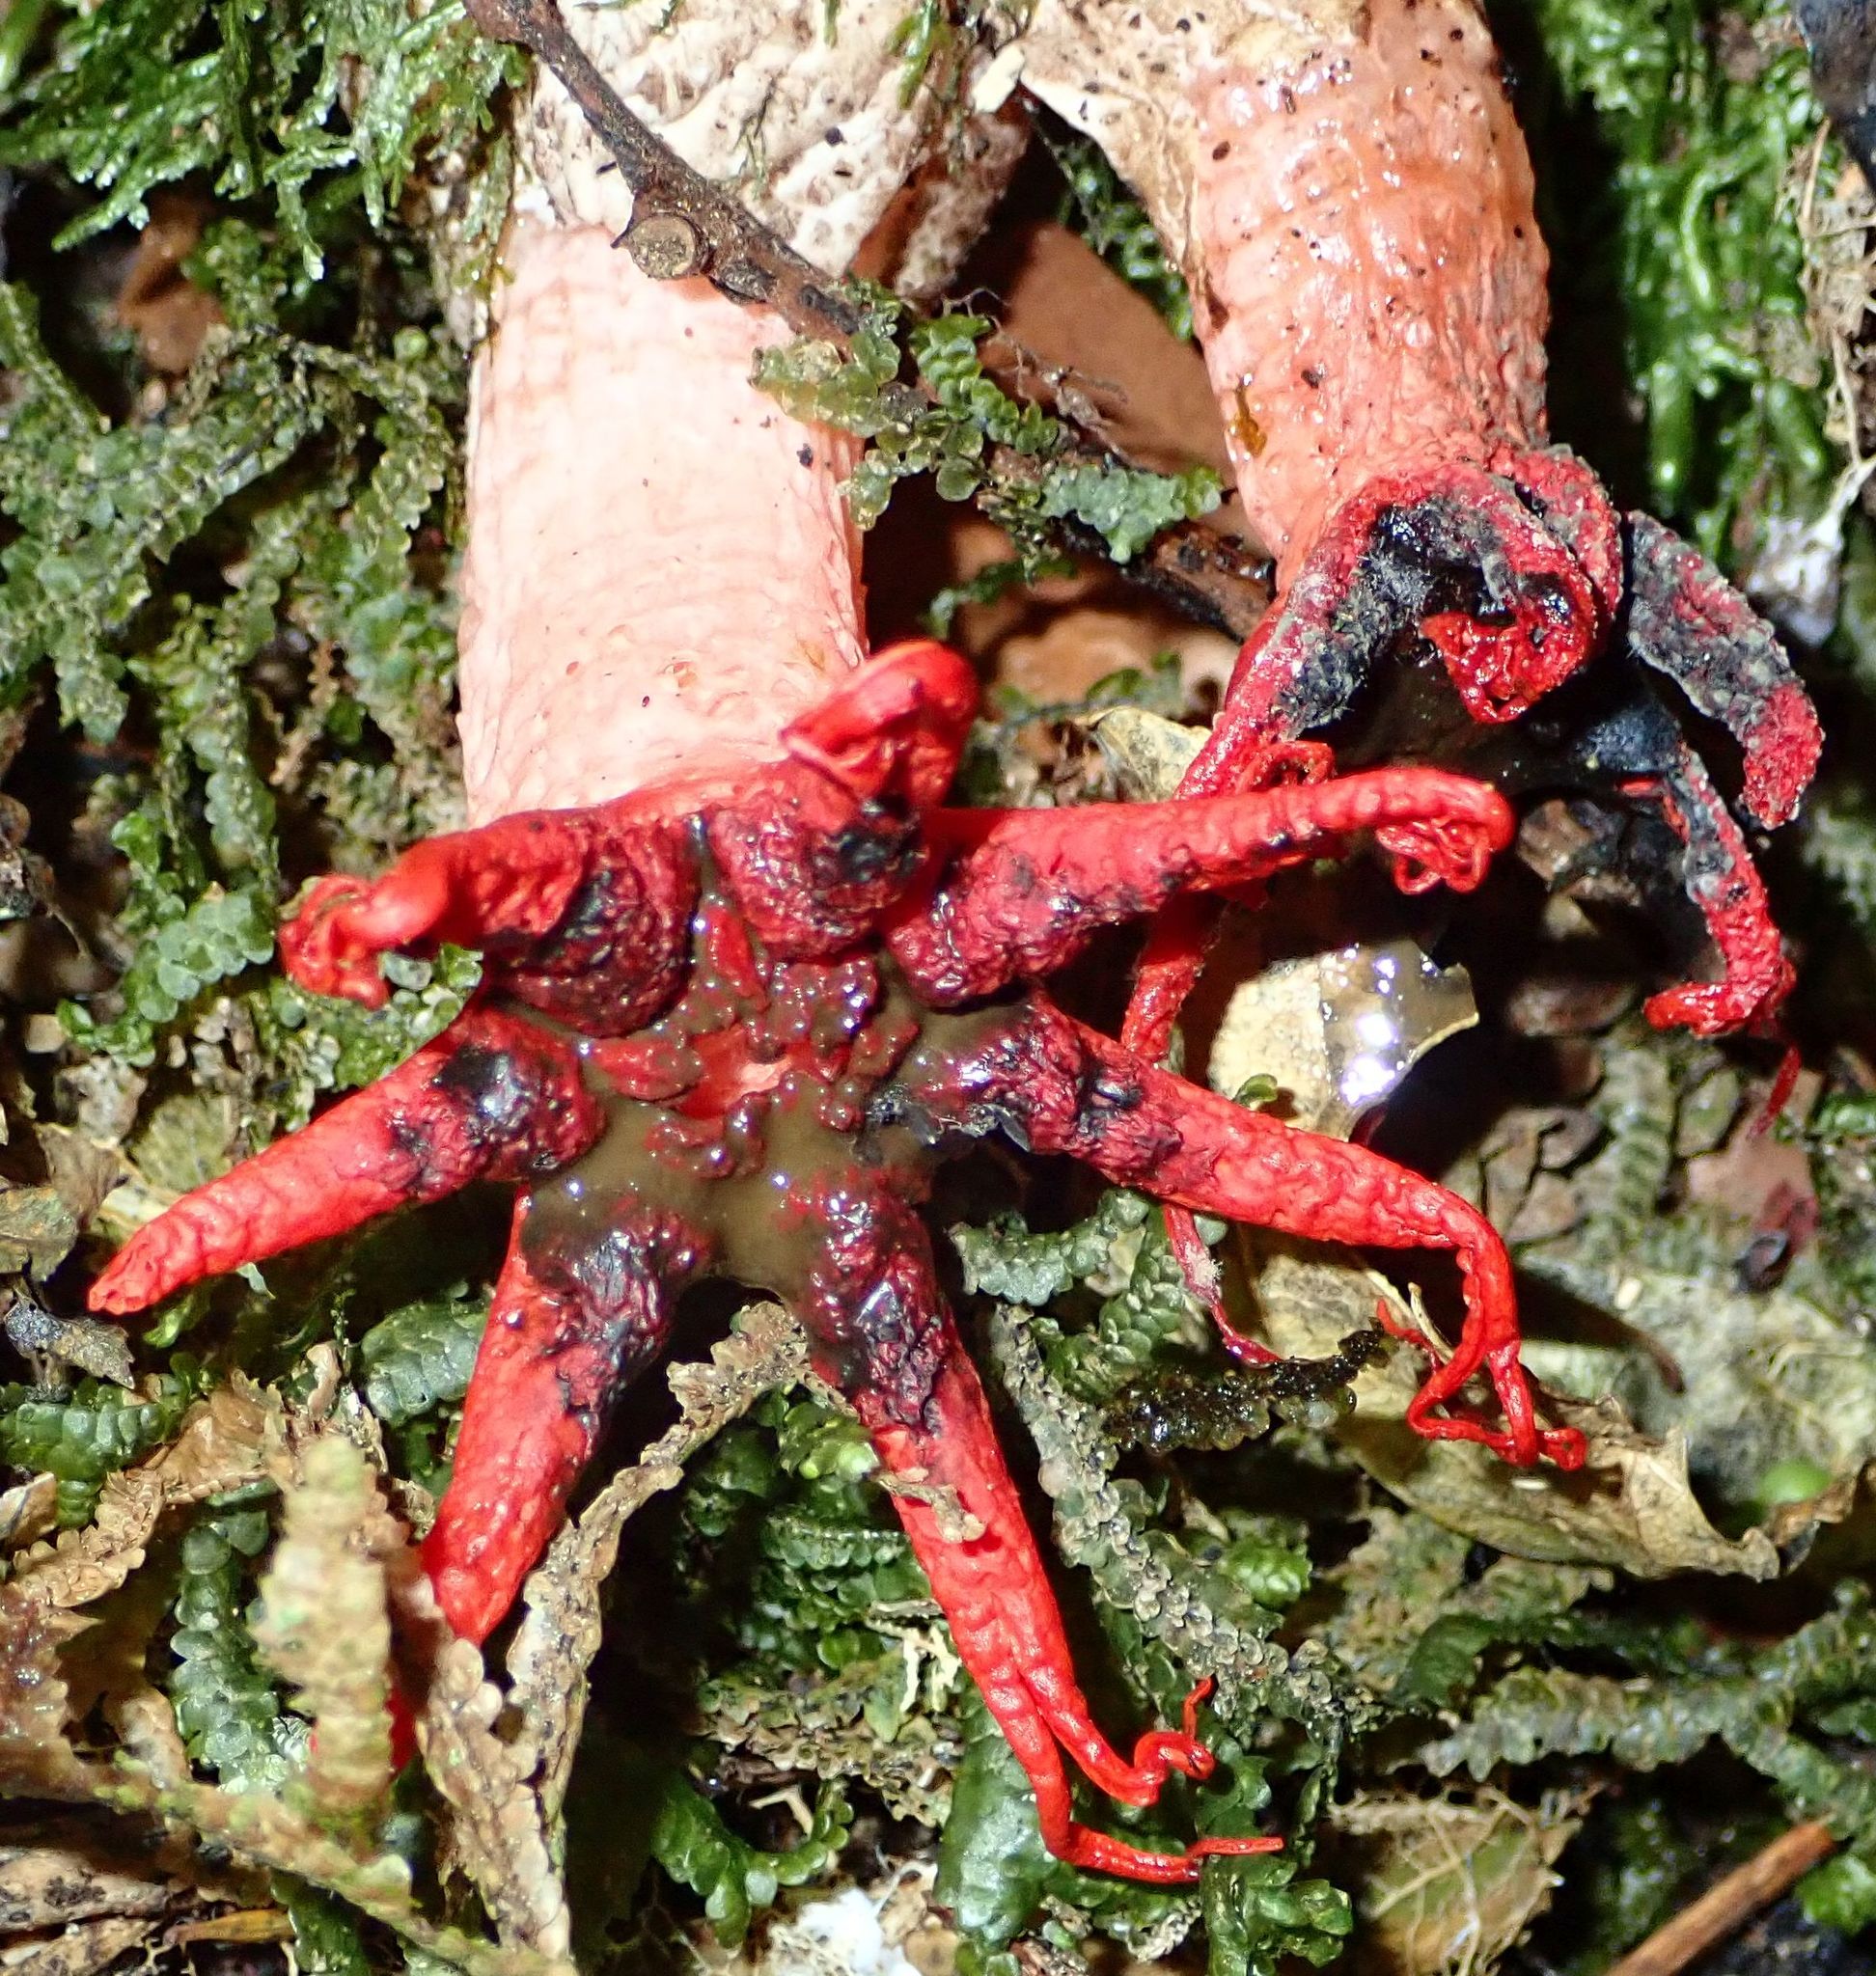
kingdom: Fungi
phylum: Basidiomycota
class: Agaricomycetes
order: Phallales
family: Phallaceae
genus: Aseroe
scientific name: Aseroe rubra
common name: Starfish fungus
